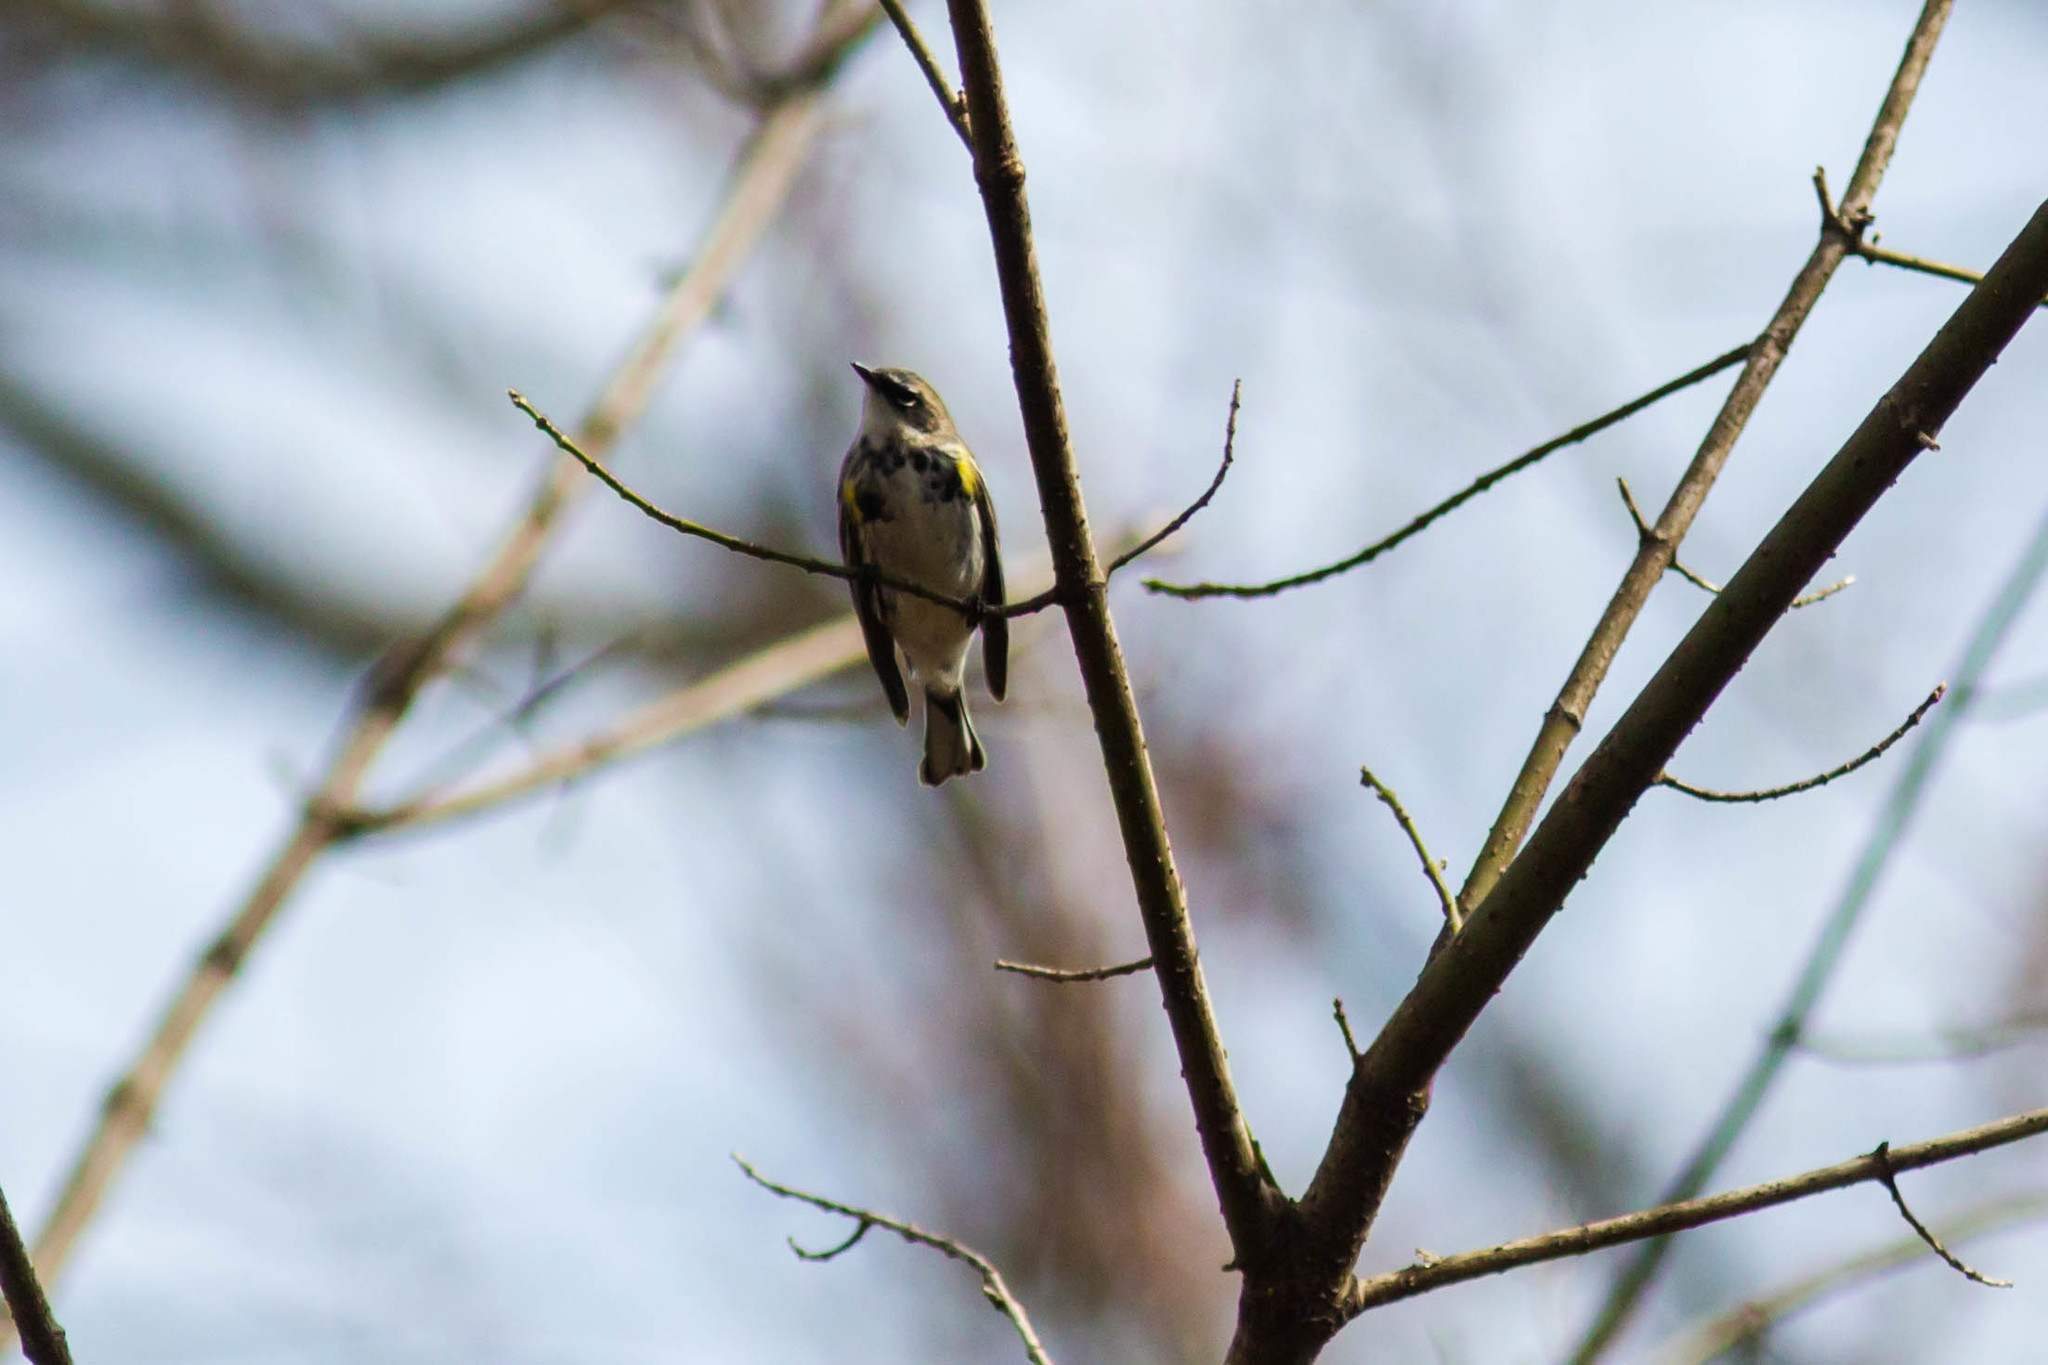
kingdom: Animalia
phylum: Chordata
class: Aves
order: Passeriformes
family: Parulidae
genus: Setophaga
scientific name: Setophaga coronata
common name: Myrtle warbler
